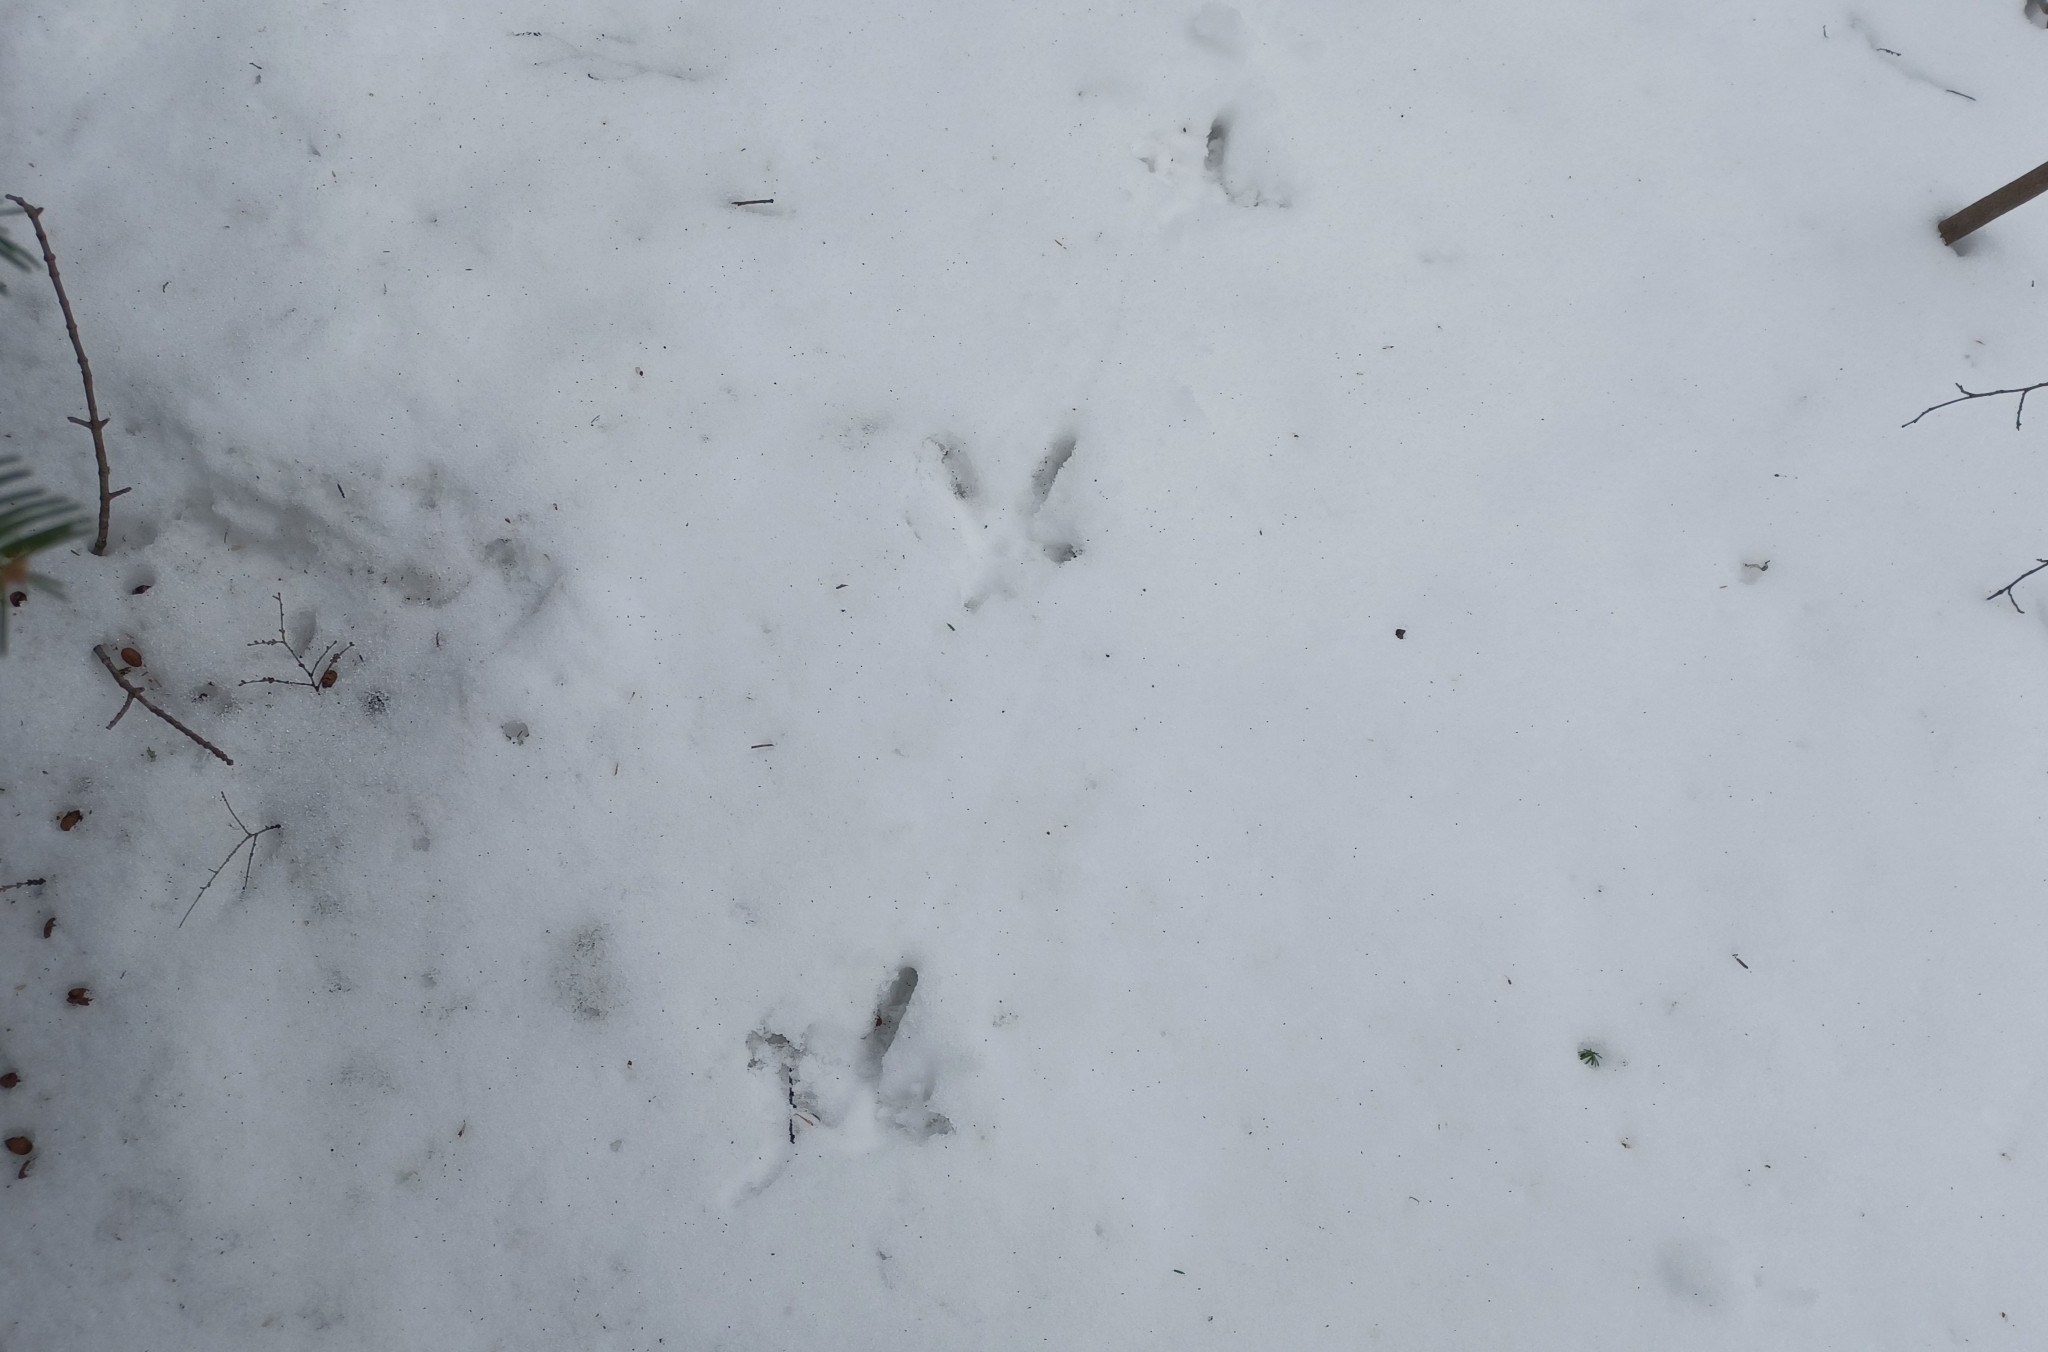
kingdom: Animalia
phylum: Chordata
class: Aves
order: Galliformes
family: Phasianidae
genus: Meleagris
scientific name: Meleagris gallopavo
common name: Wild turkey
